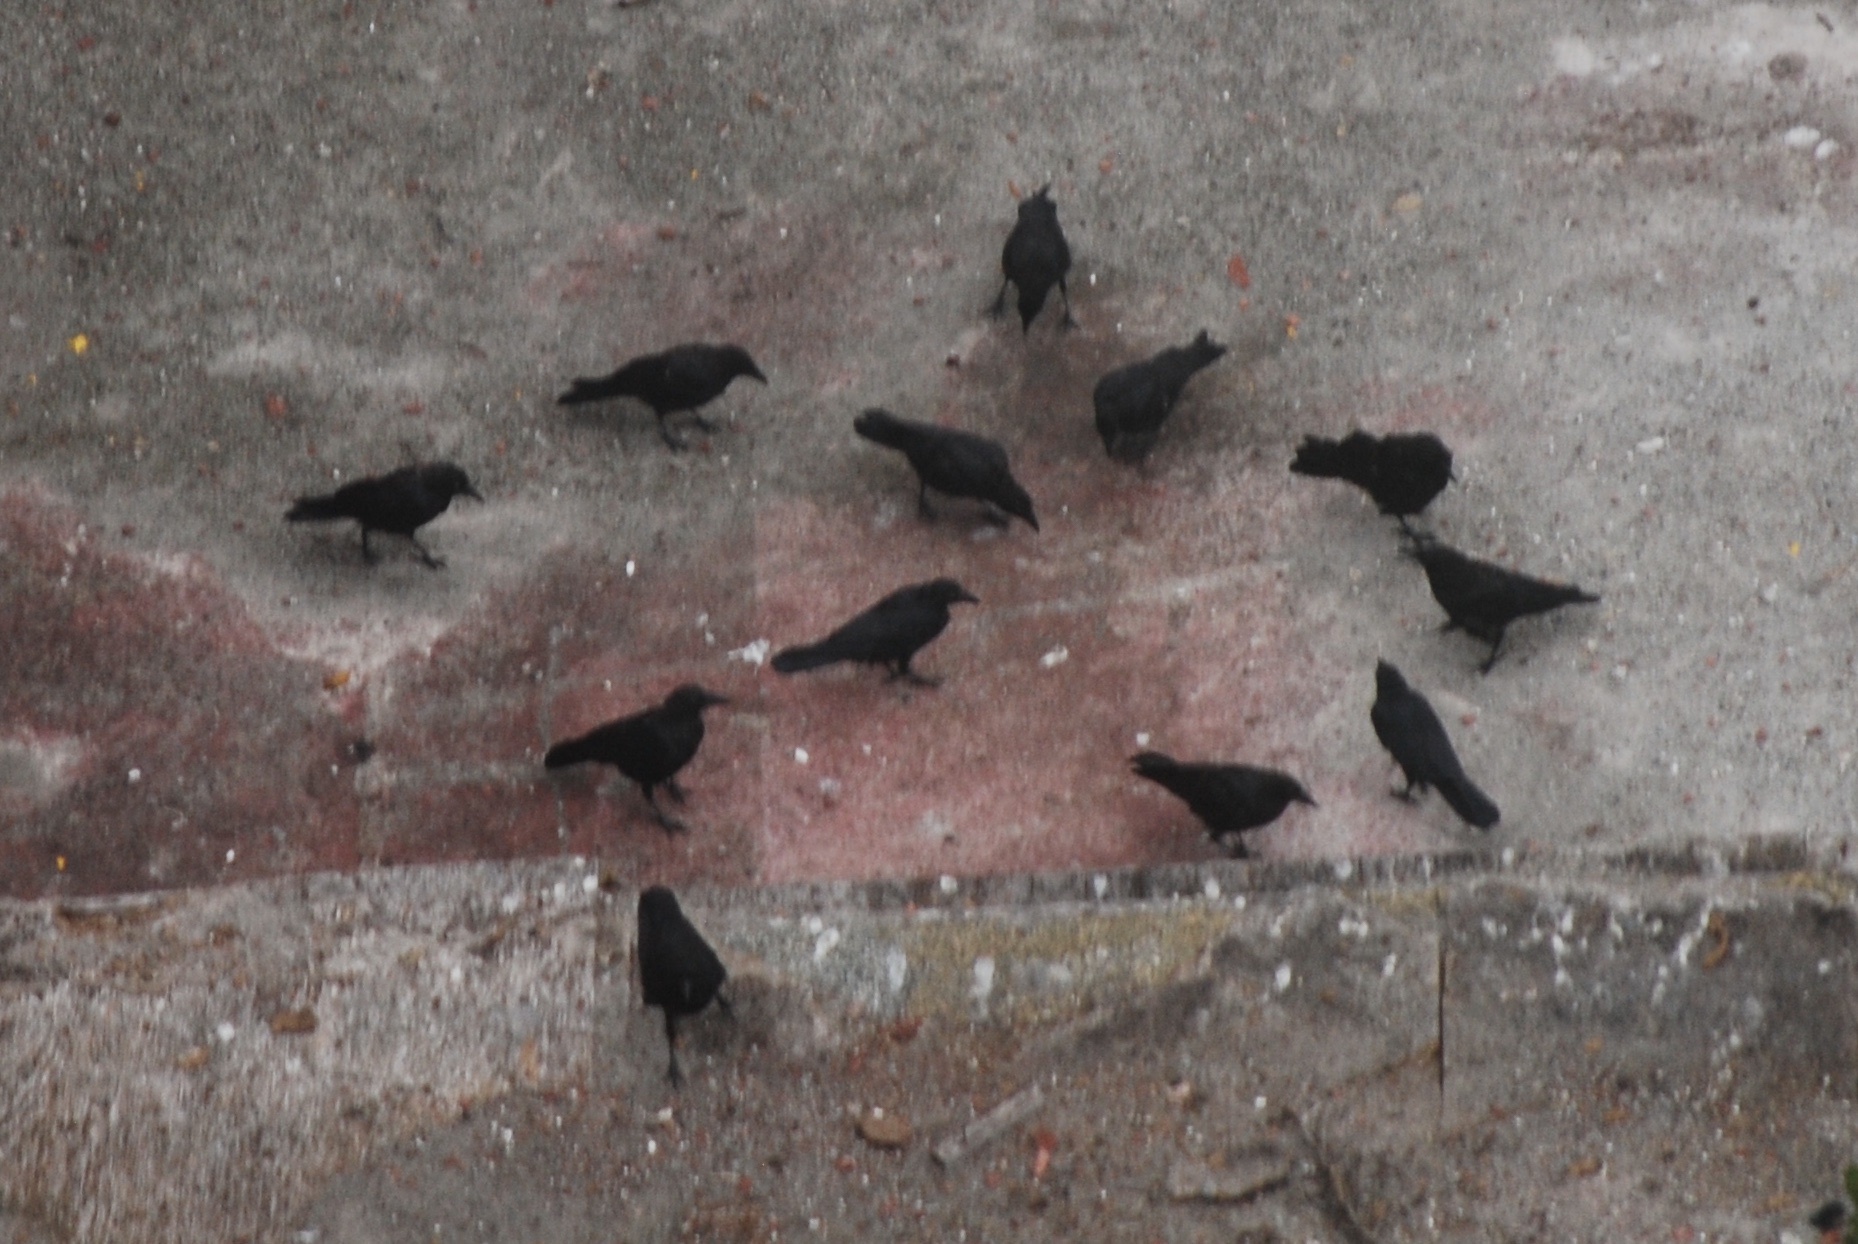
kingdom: Animalia
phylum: Chordata
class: Aves
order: Passeriformes
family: Corvidae
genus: Corvus
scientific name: Corvus brachyrhynchos
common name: American crow
